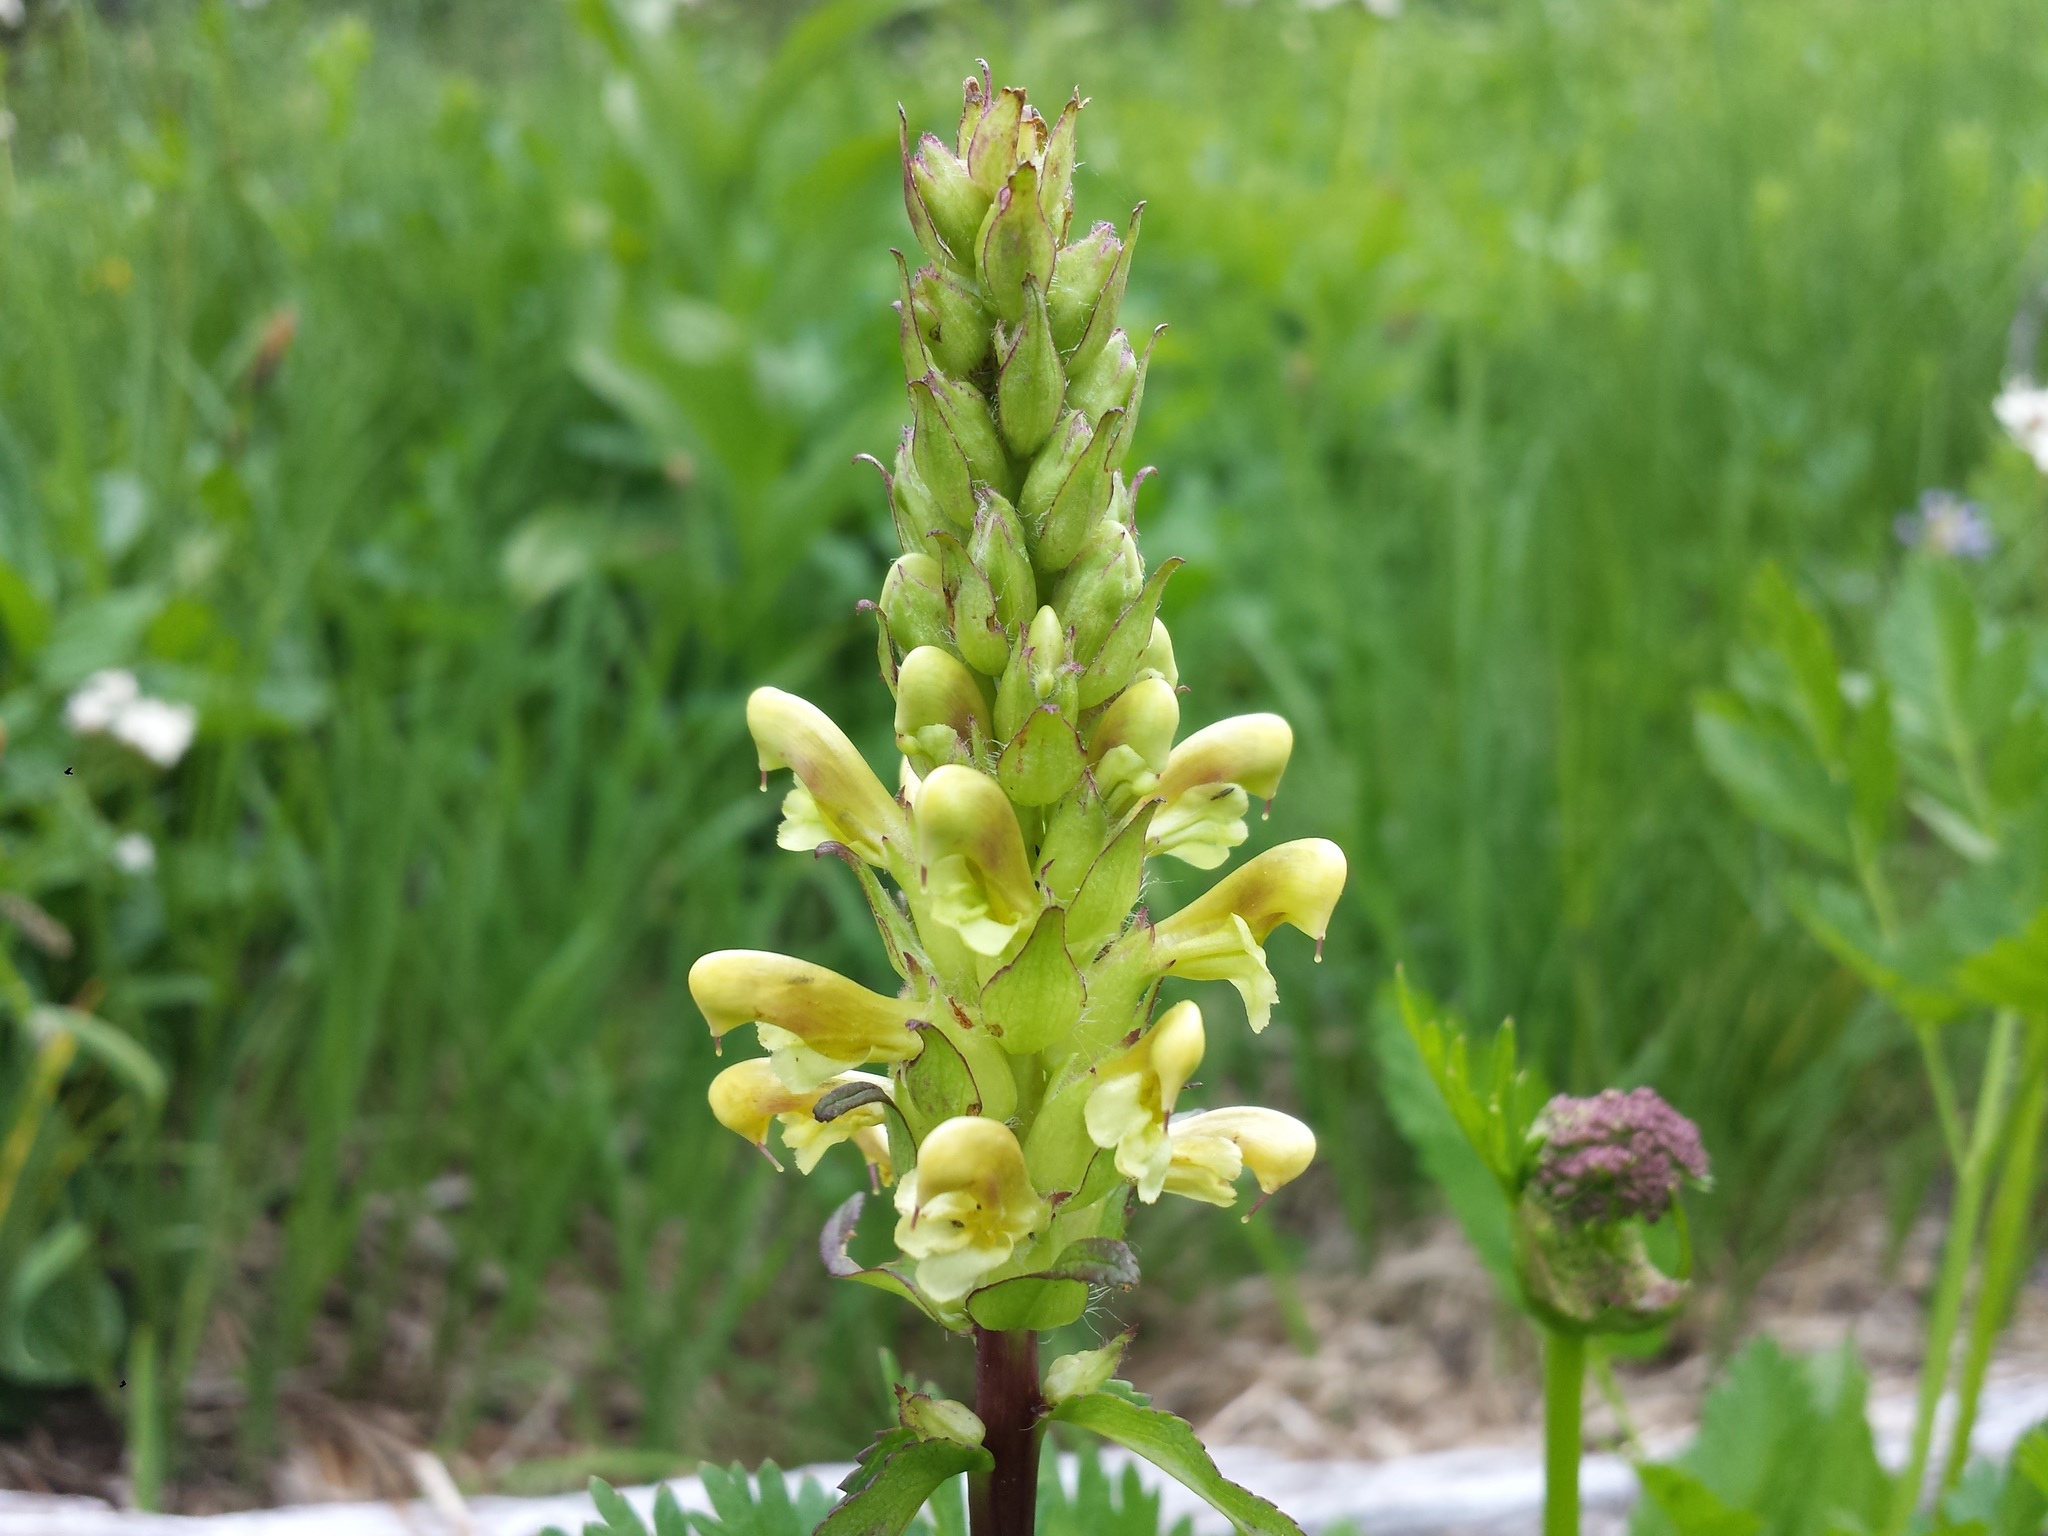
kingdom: Plantae
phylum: Tracheophyta
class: Magnoliopsida
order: Lamiales
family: Orobanchaceae
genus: Pedicularis
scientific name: Pedicularis bracteosa
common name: Bracted lousewort
